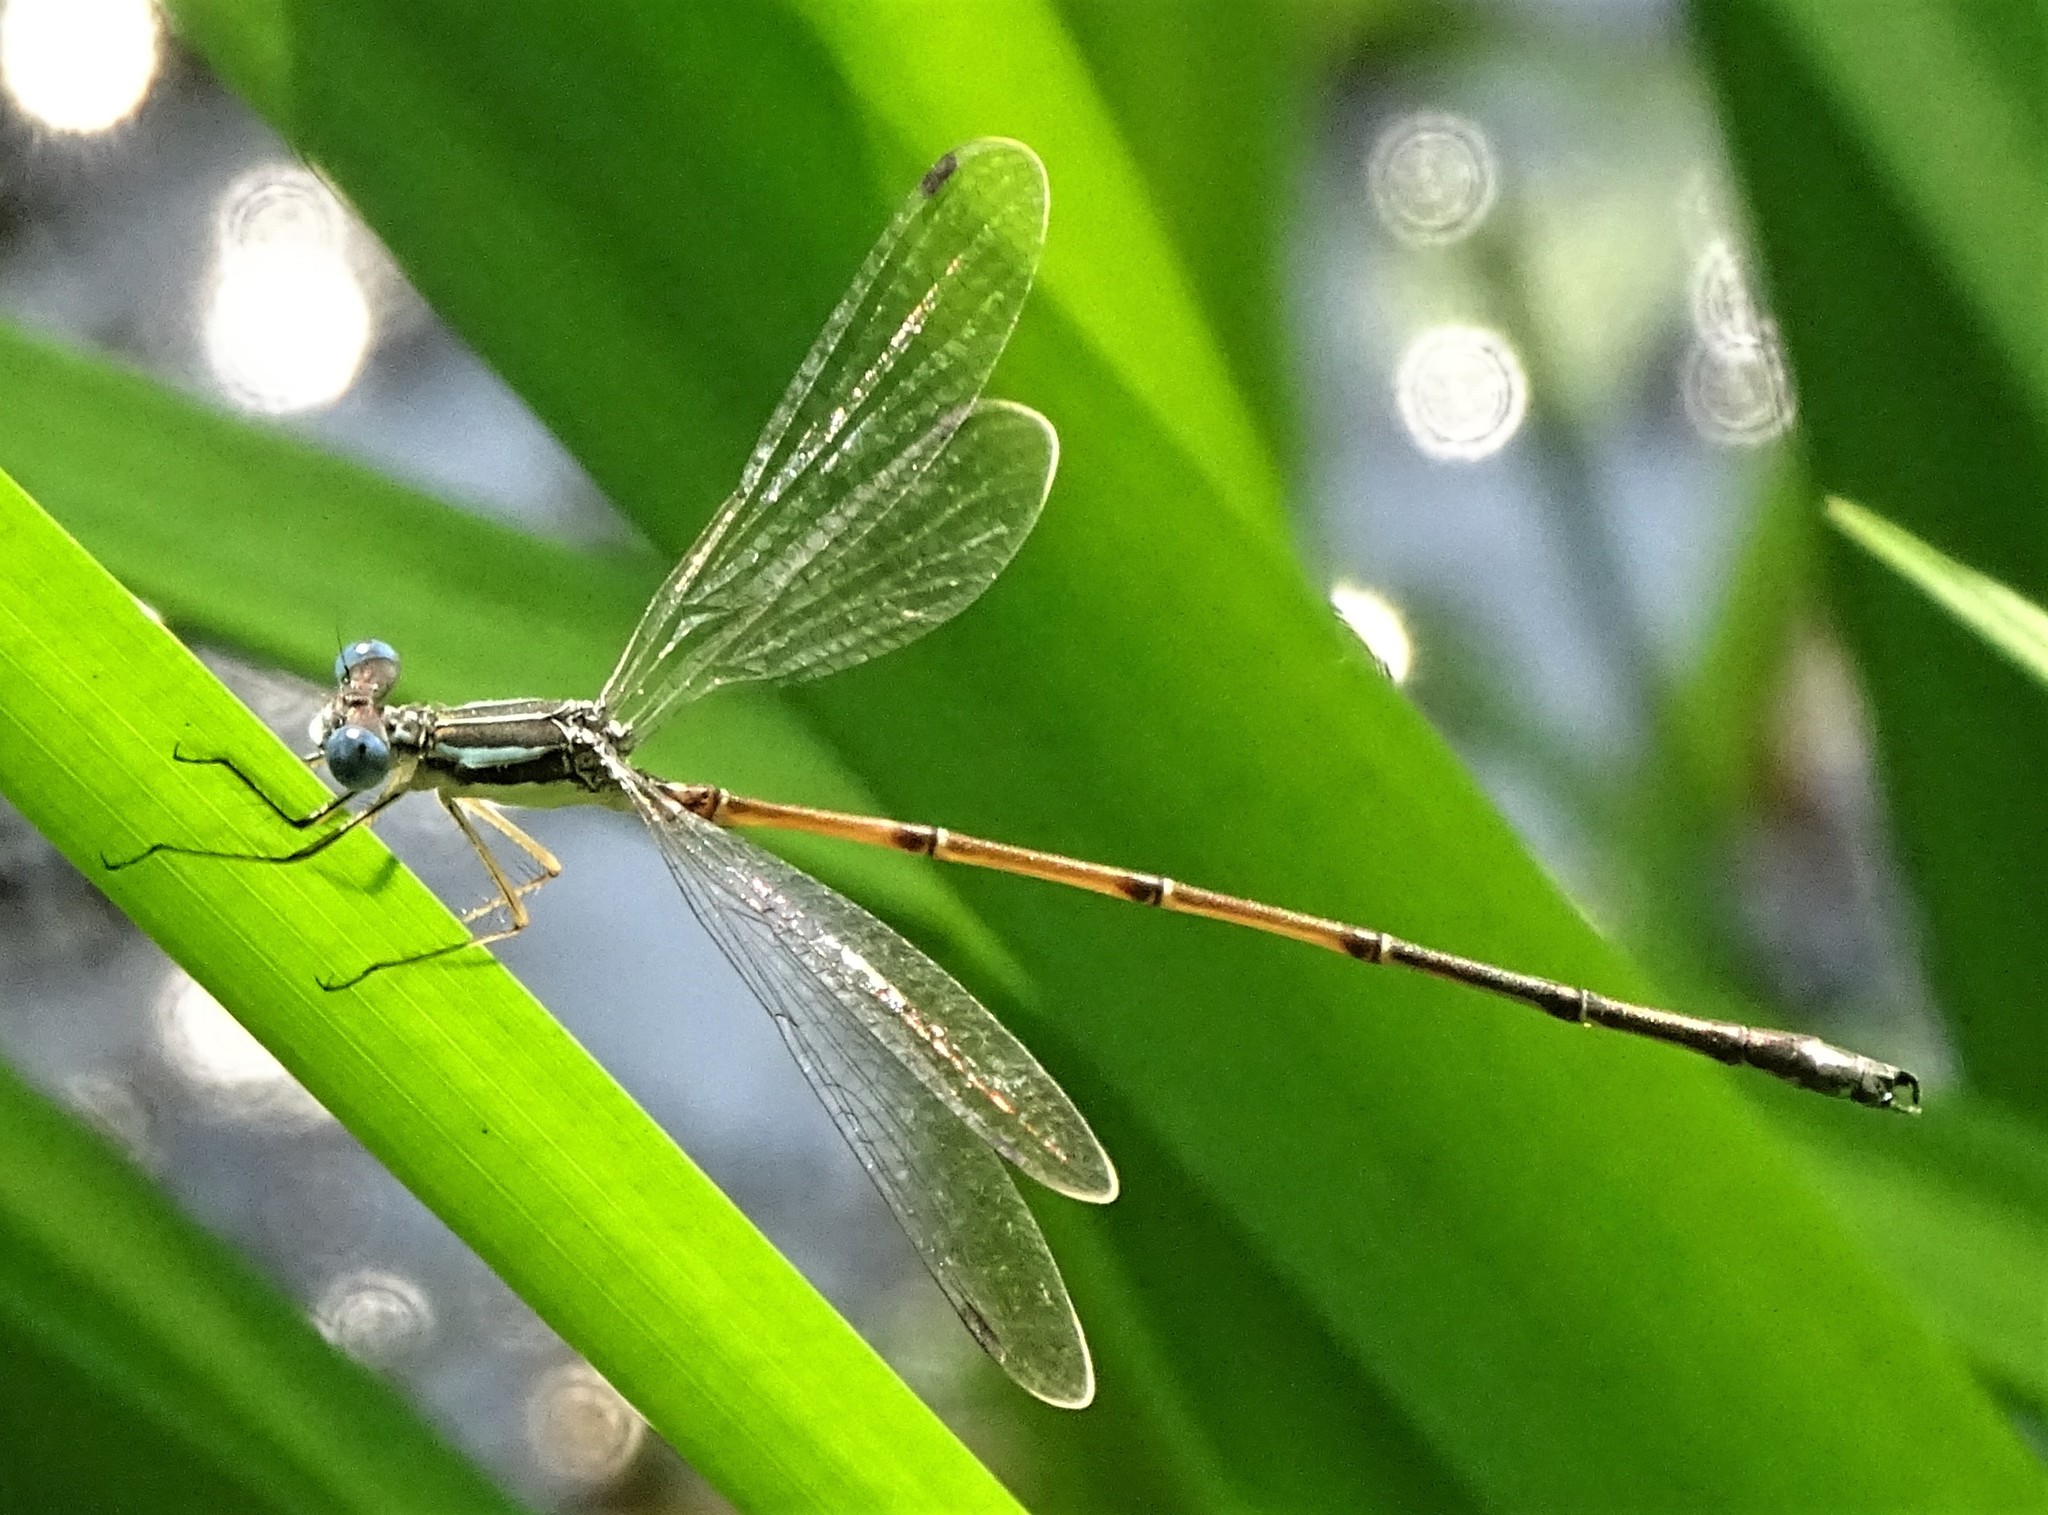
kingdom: Animalia
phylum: Arthropoda
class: Insecta
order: Odonata
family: Lestidae
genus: Lestes
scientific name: Lestes rectangularis
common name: Slender spreadwing
